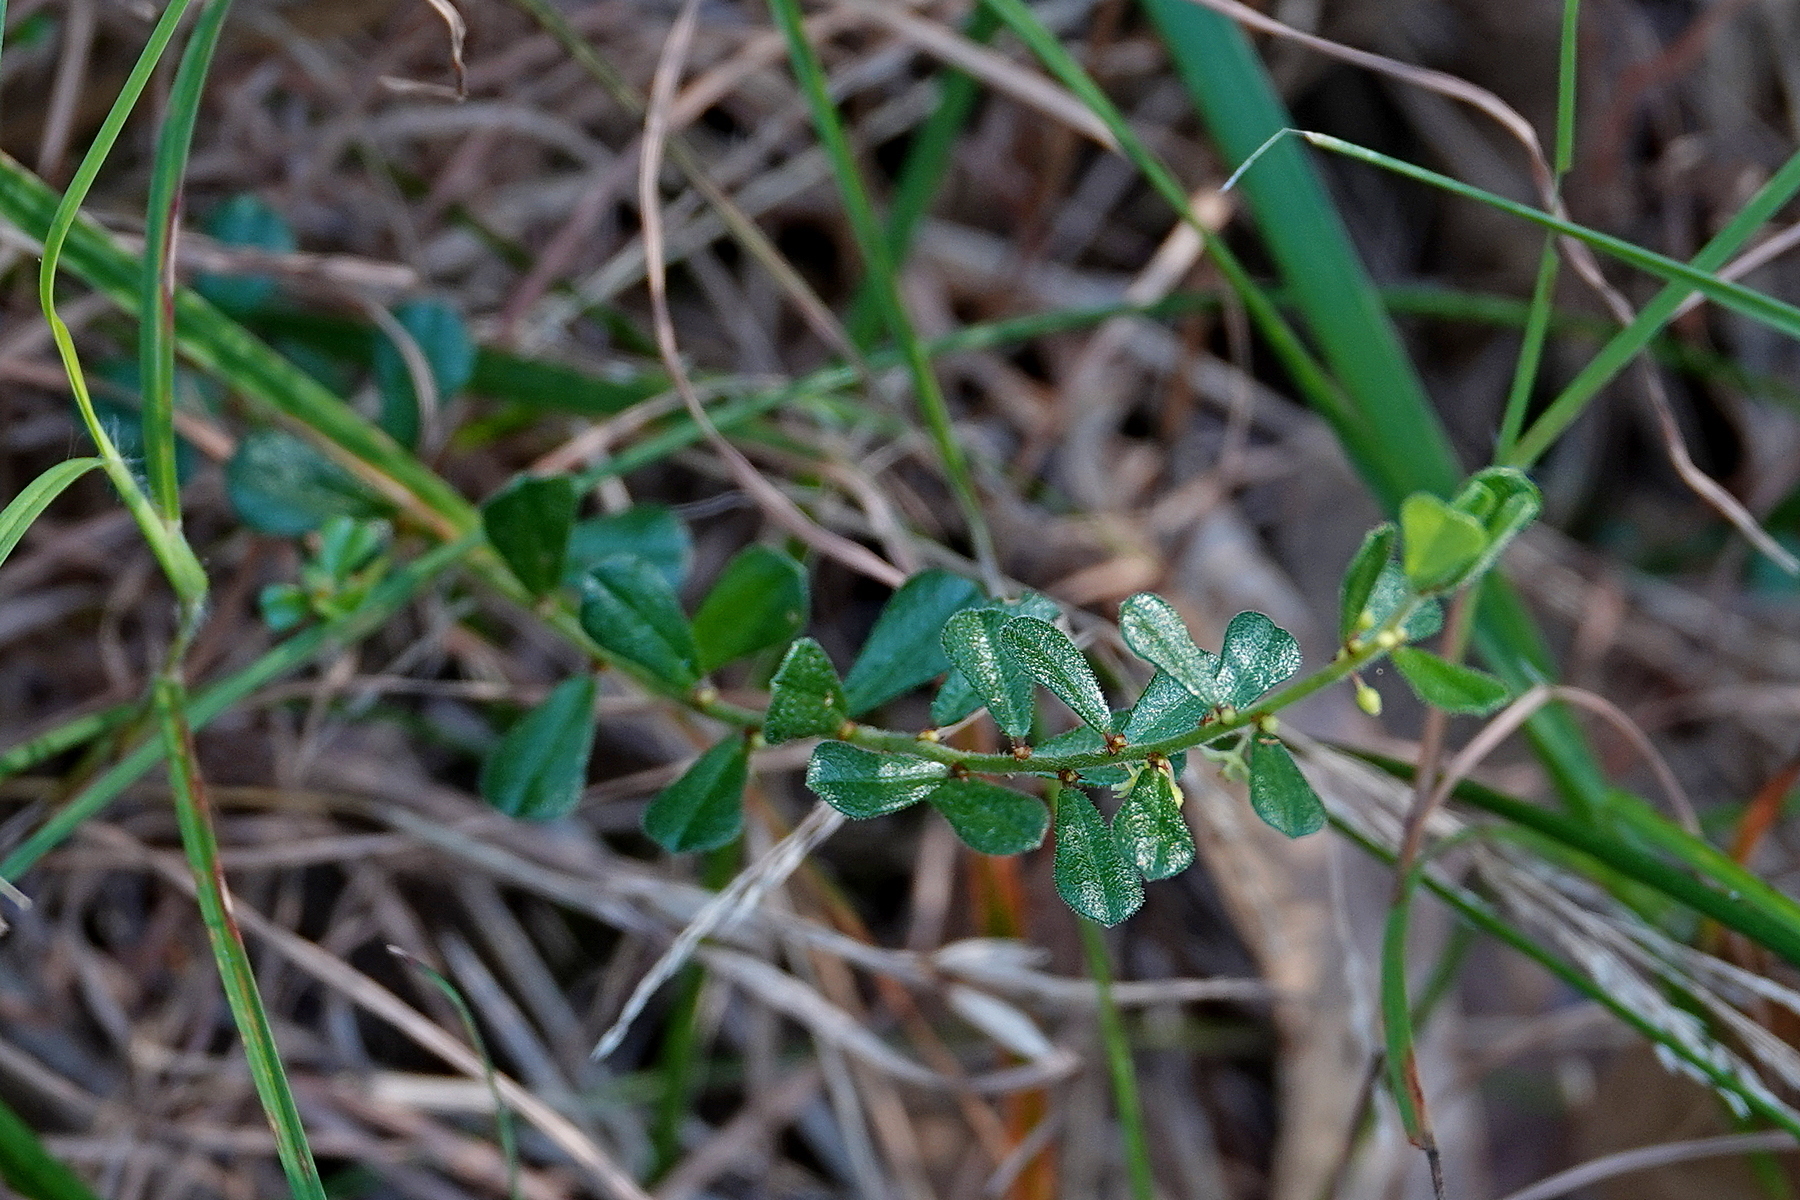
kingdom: Plantae
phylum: Tracheophyta
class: Magnoliopsida
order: Malpighiales
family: Phyllanthaceae
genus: Phyllanthus
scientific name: Phyllanthus hirtellus
